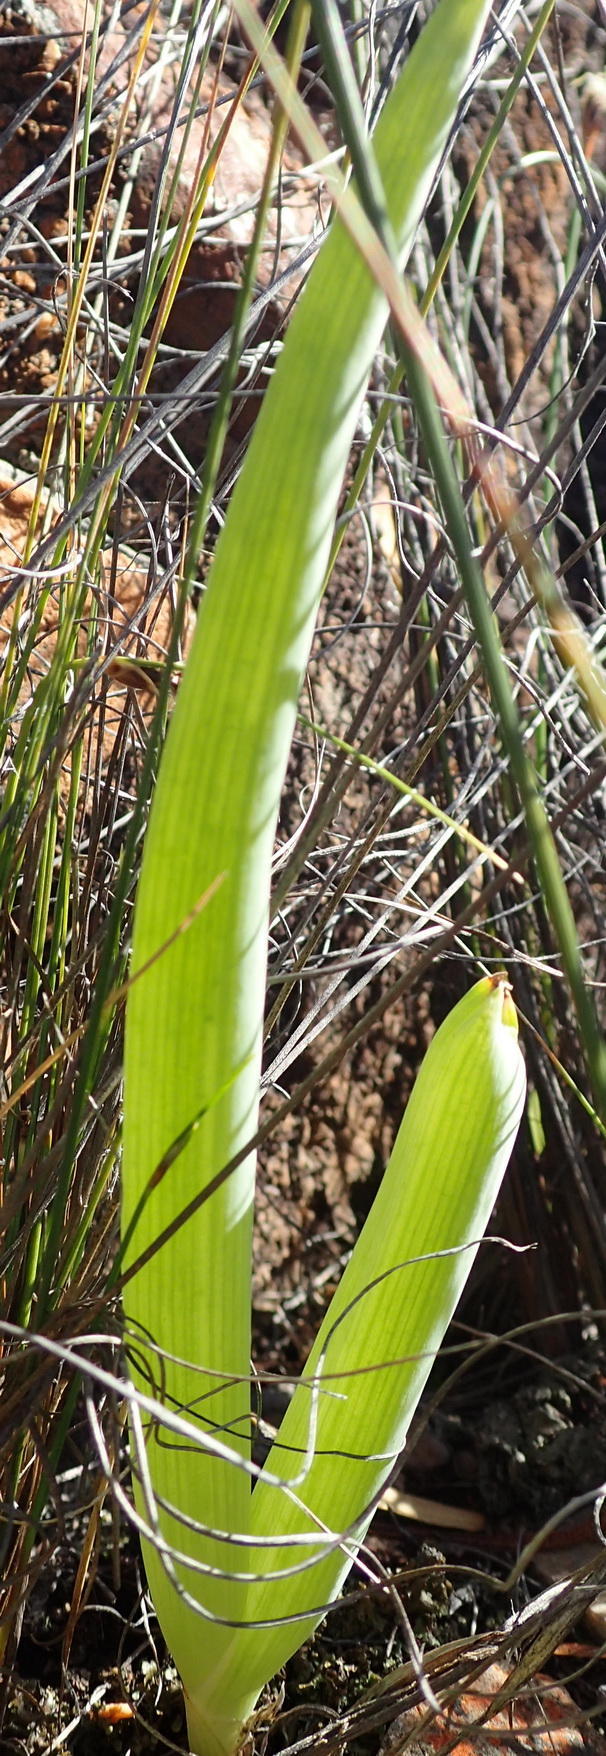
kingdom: Plantae
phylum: Tracheophyta
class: Liliopsida
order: Asparagales
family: Asphodelaceae
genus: Bulbine
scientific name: Bulbine succulenta
